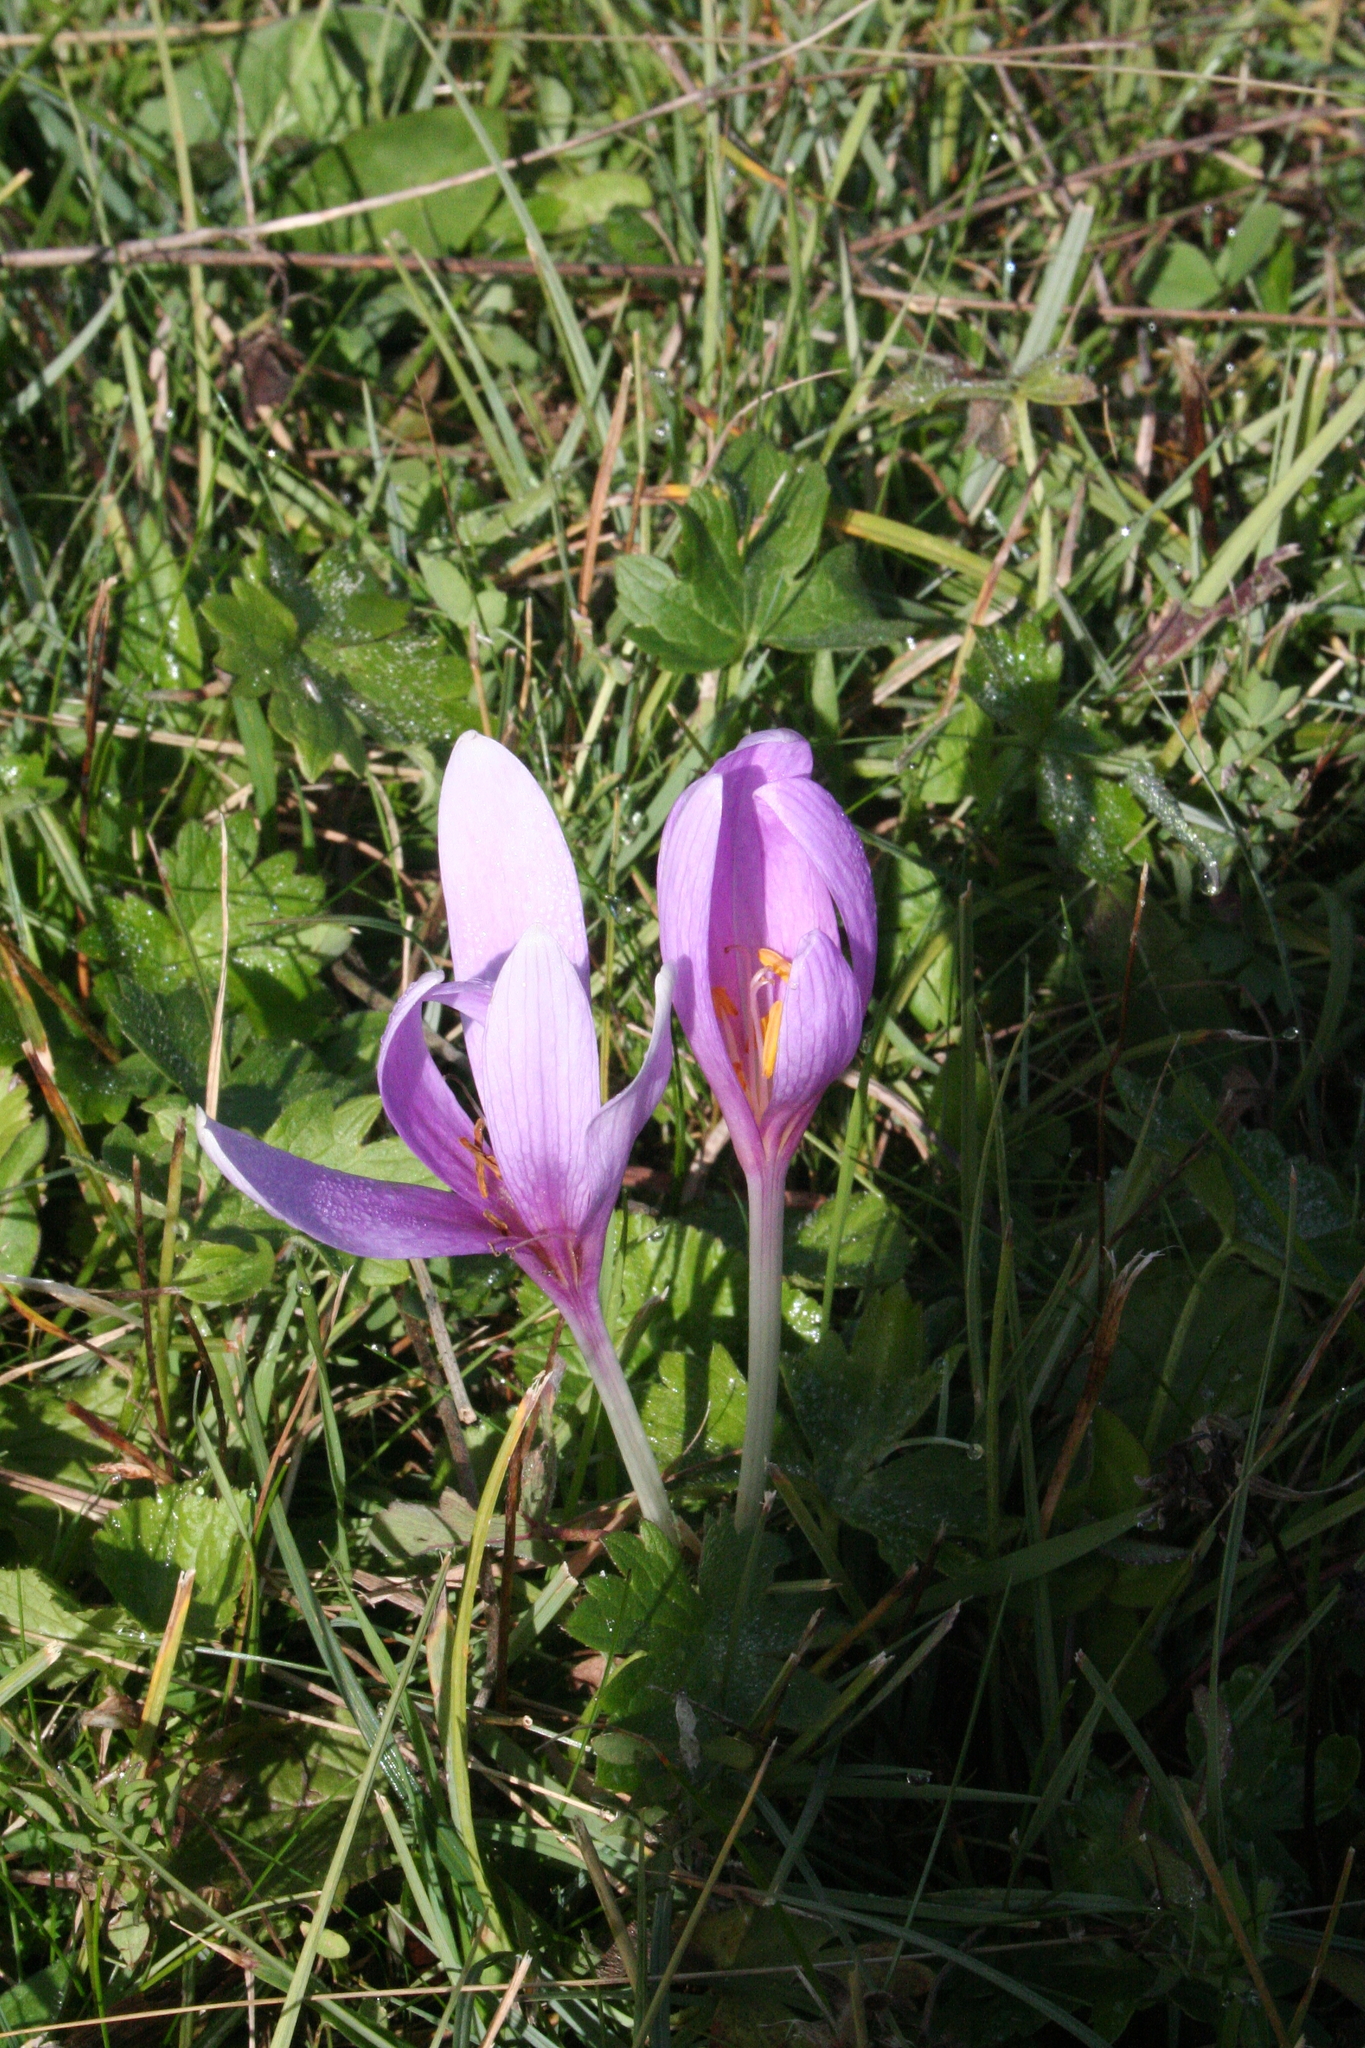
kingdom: Plantae
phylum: Tracheophyta
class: Liliopsida
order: Liliales
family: Colchicaceae
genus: Colchicum
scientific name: Colchicum autumnale
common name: Autumn crocus
